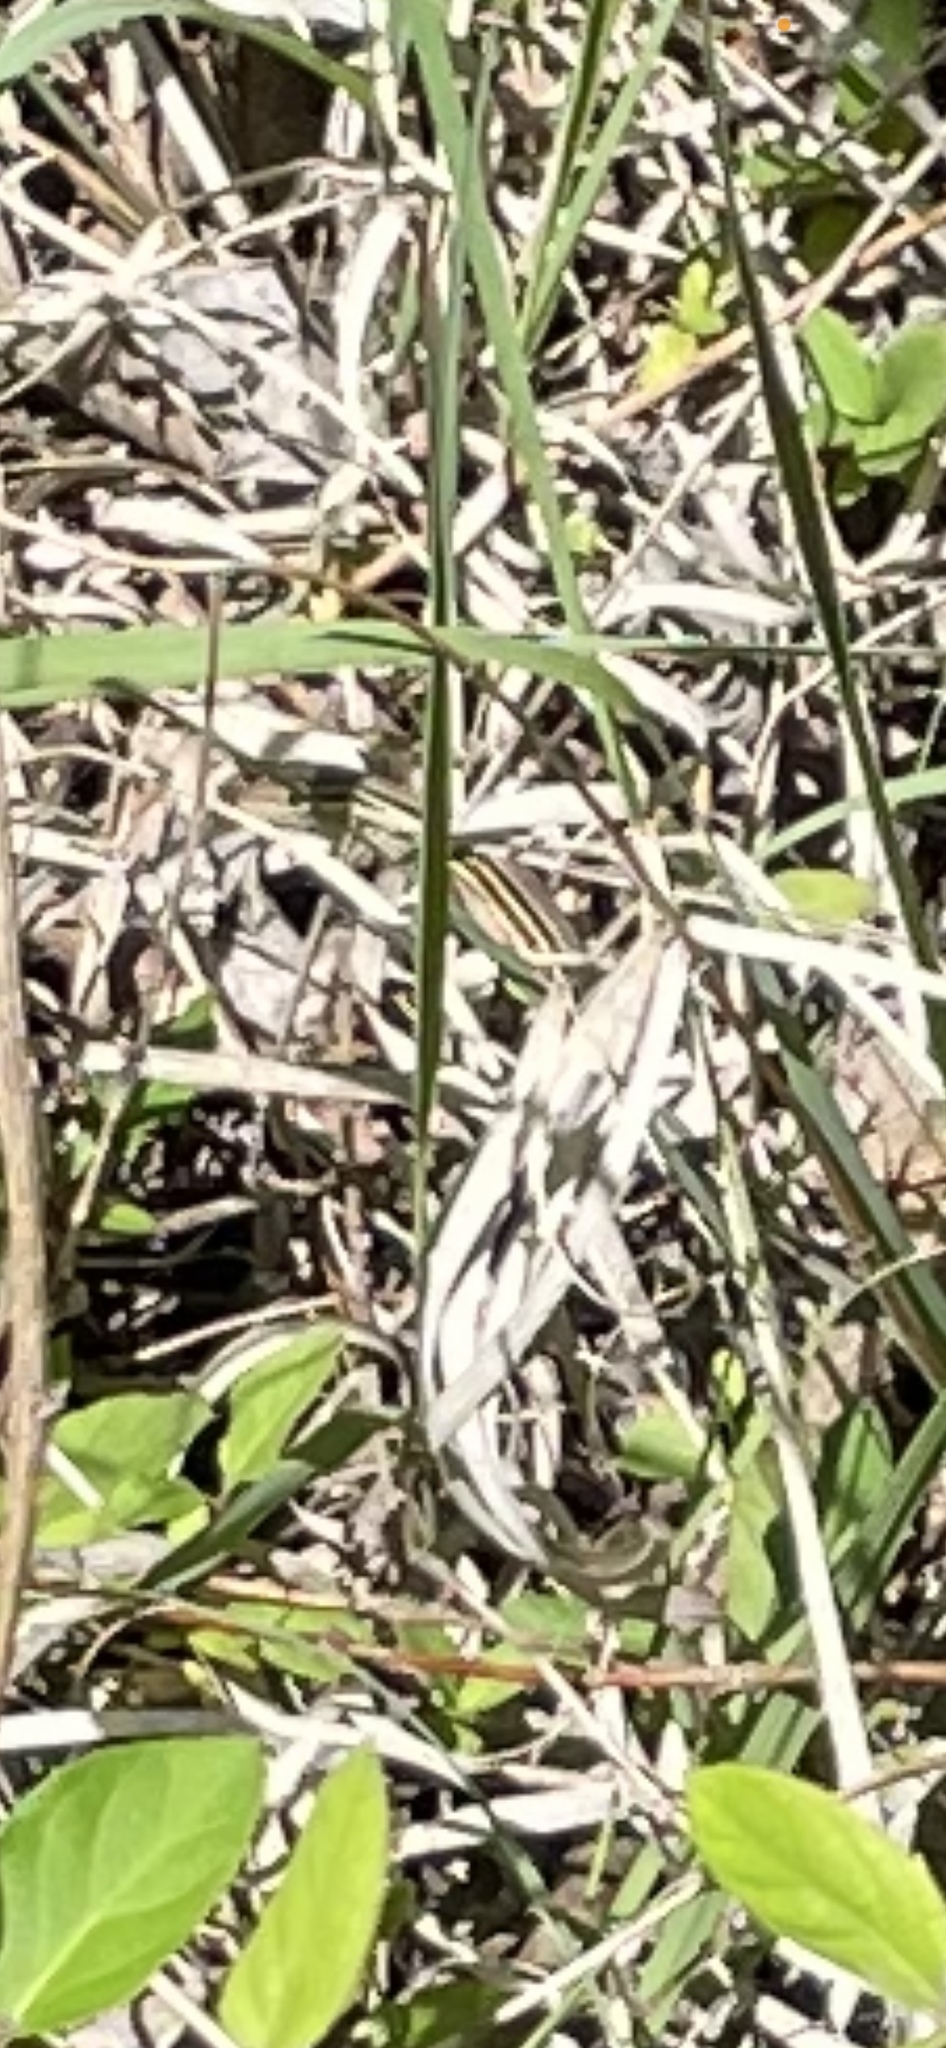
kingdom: Animalia
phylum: Chordata
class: Squamata
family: Teiidae
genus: Aspidoscelis
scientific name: Aspidoscelis sexlineatus
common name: Six-lined racerunner
